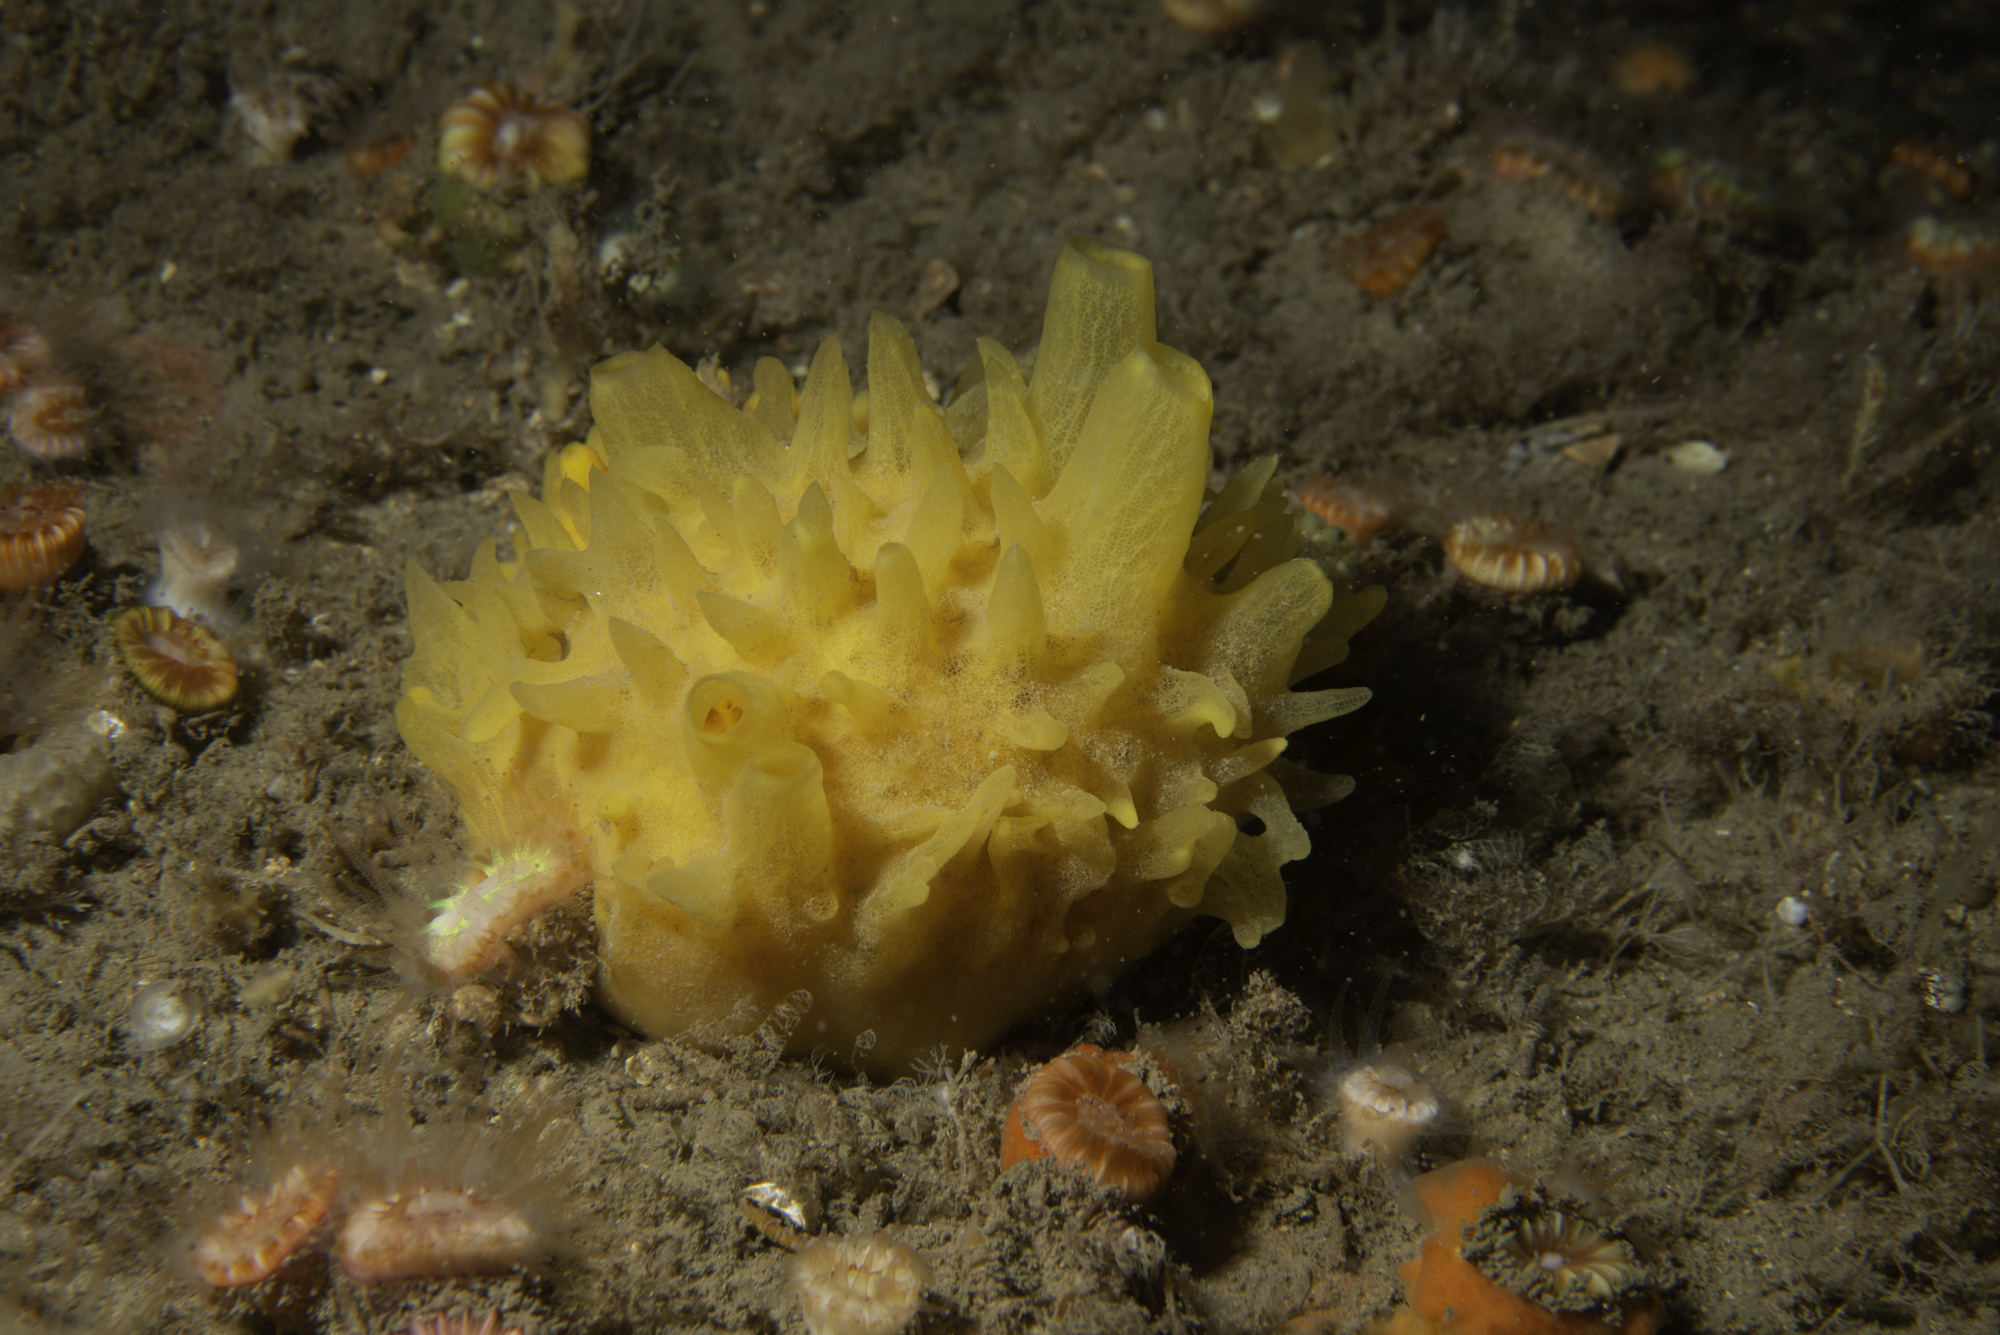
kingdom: Animalia
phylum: Porifera
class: Demospongiae
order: Polymastiida
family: Polymastiidae
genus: Polymastia
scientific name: Polymastia boletiformis
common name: Massive horny sponge
